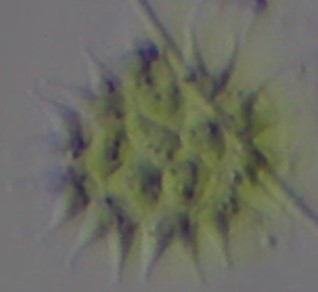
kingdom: Plantae
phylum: Chlorophyta
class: Chlorophyceae
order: Sphaeropleales
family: Hydrodictyaceae
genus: Pseudopediastrum
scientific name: Pseudopediastrum boryanum
